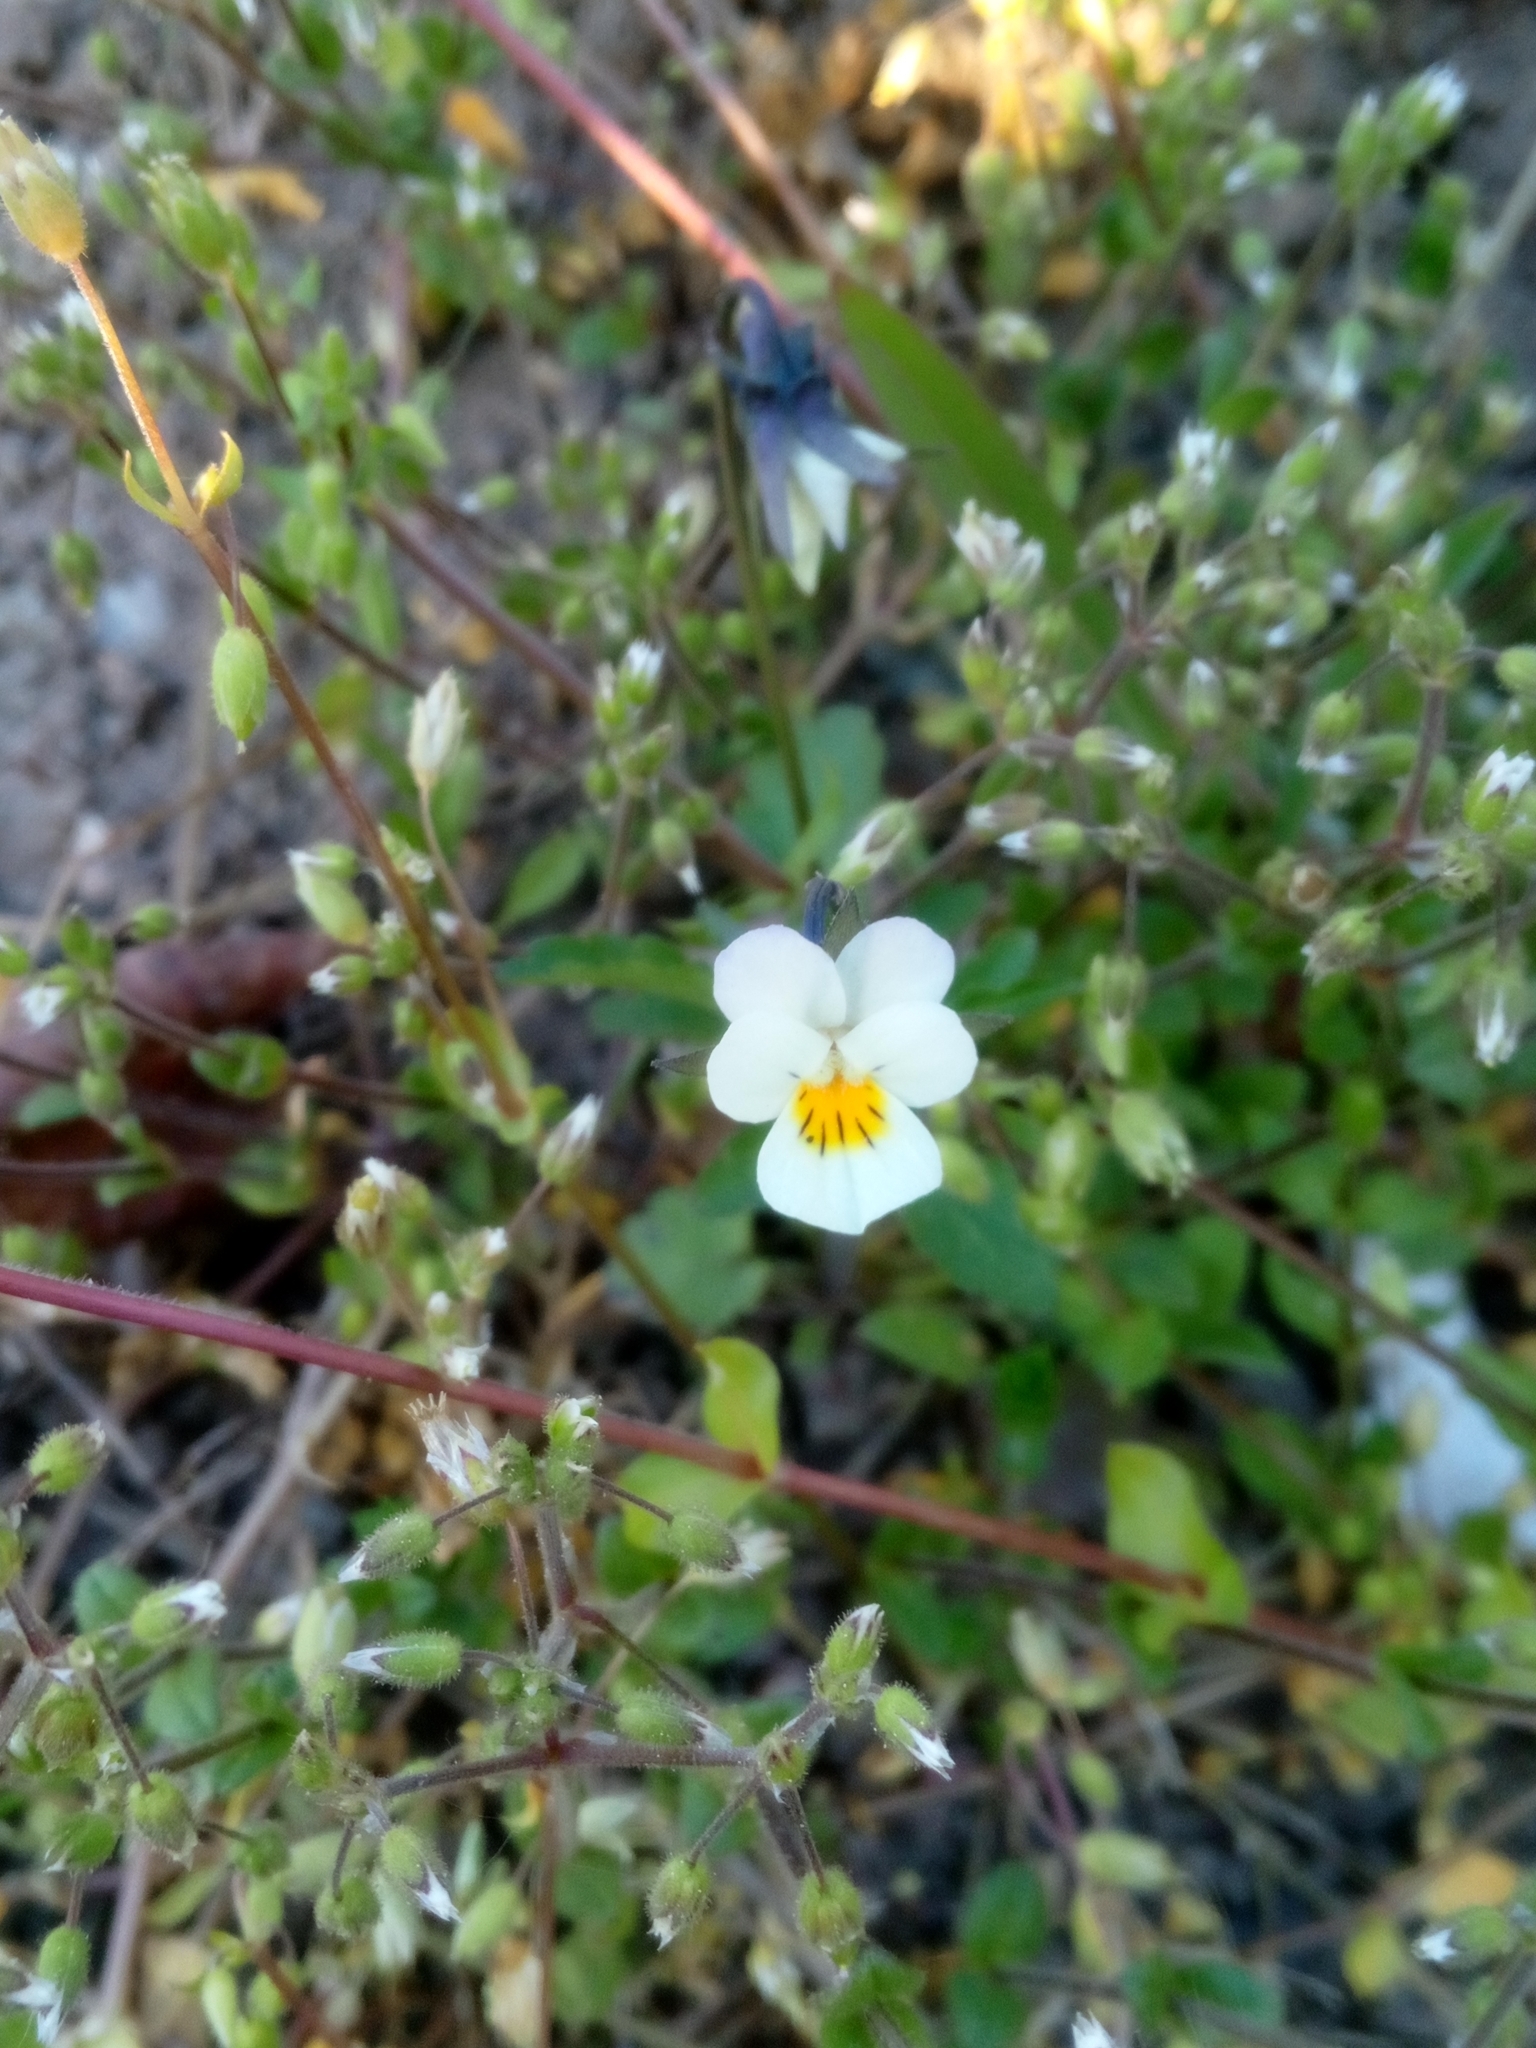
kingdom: Plantae
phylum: Tracheophyta
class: Magnoliopsida
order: Malpighiales
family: Violaceae
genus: Viola
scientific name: Viola arvensis
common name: Field pansy
